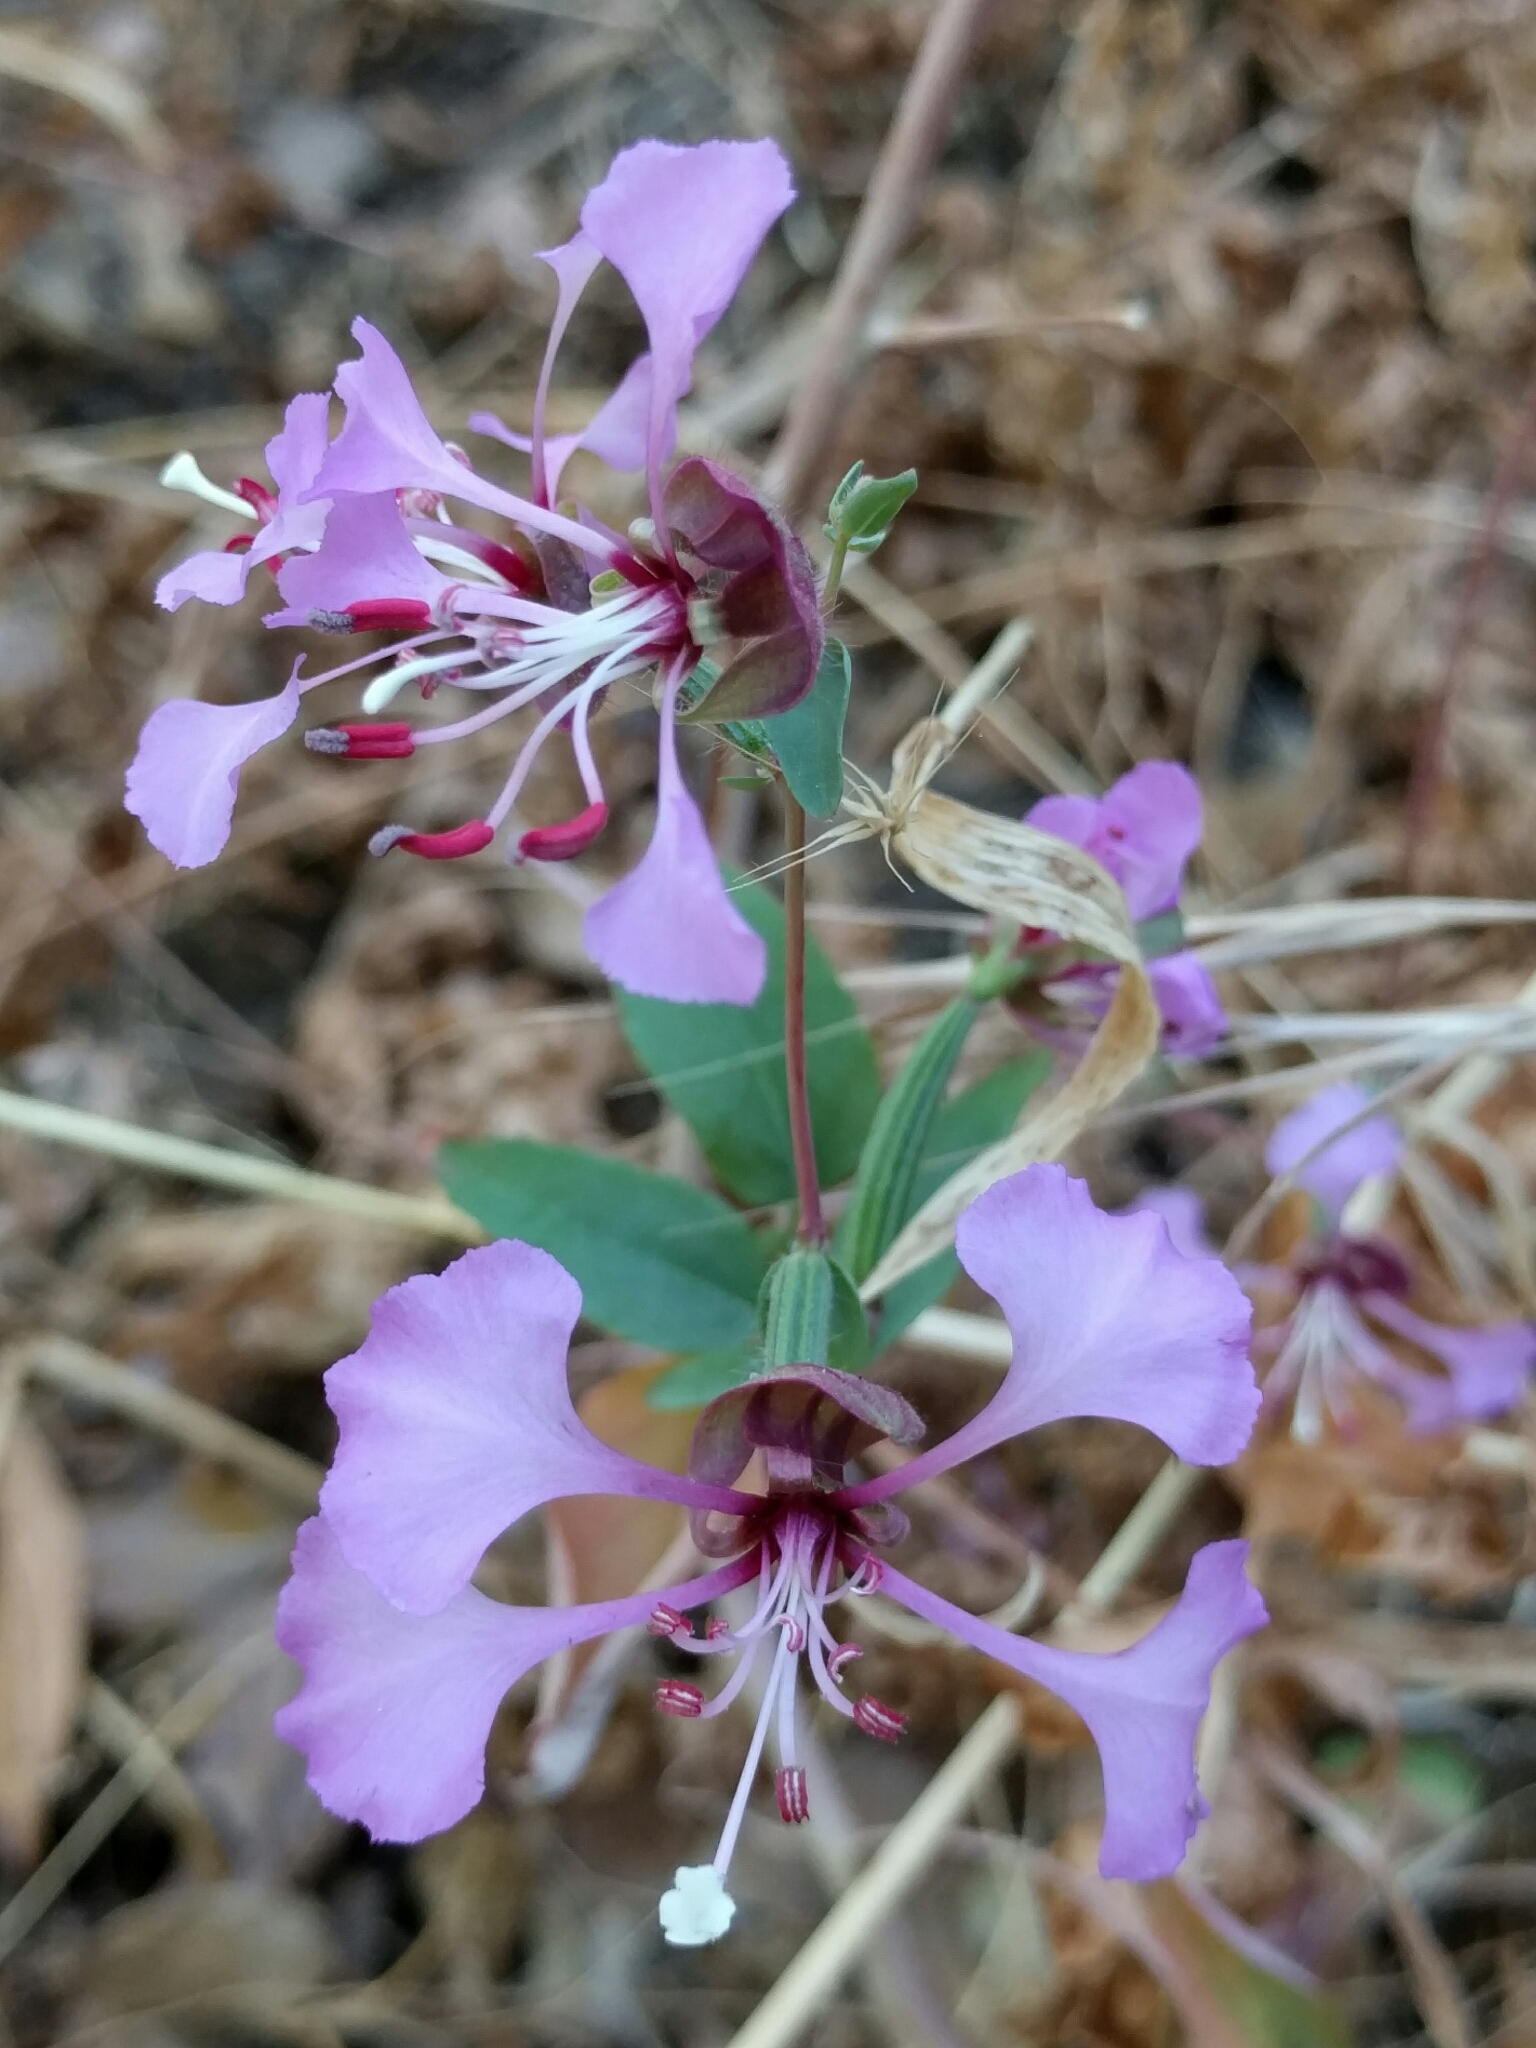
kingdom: Plantae
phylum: Tracheophyta
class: Magnoliopsida
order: Myrtales
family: Onagraceae
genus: Clarkia
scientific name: Clarkia unguiculata
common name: Clarkia
